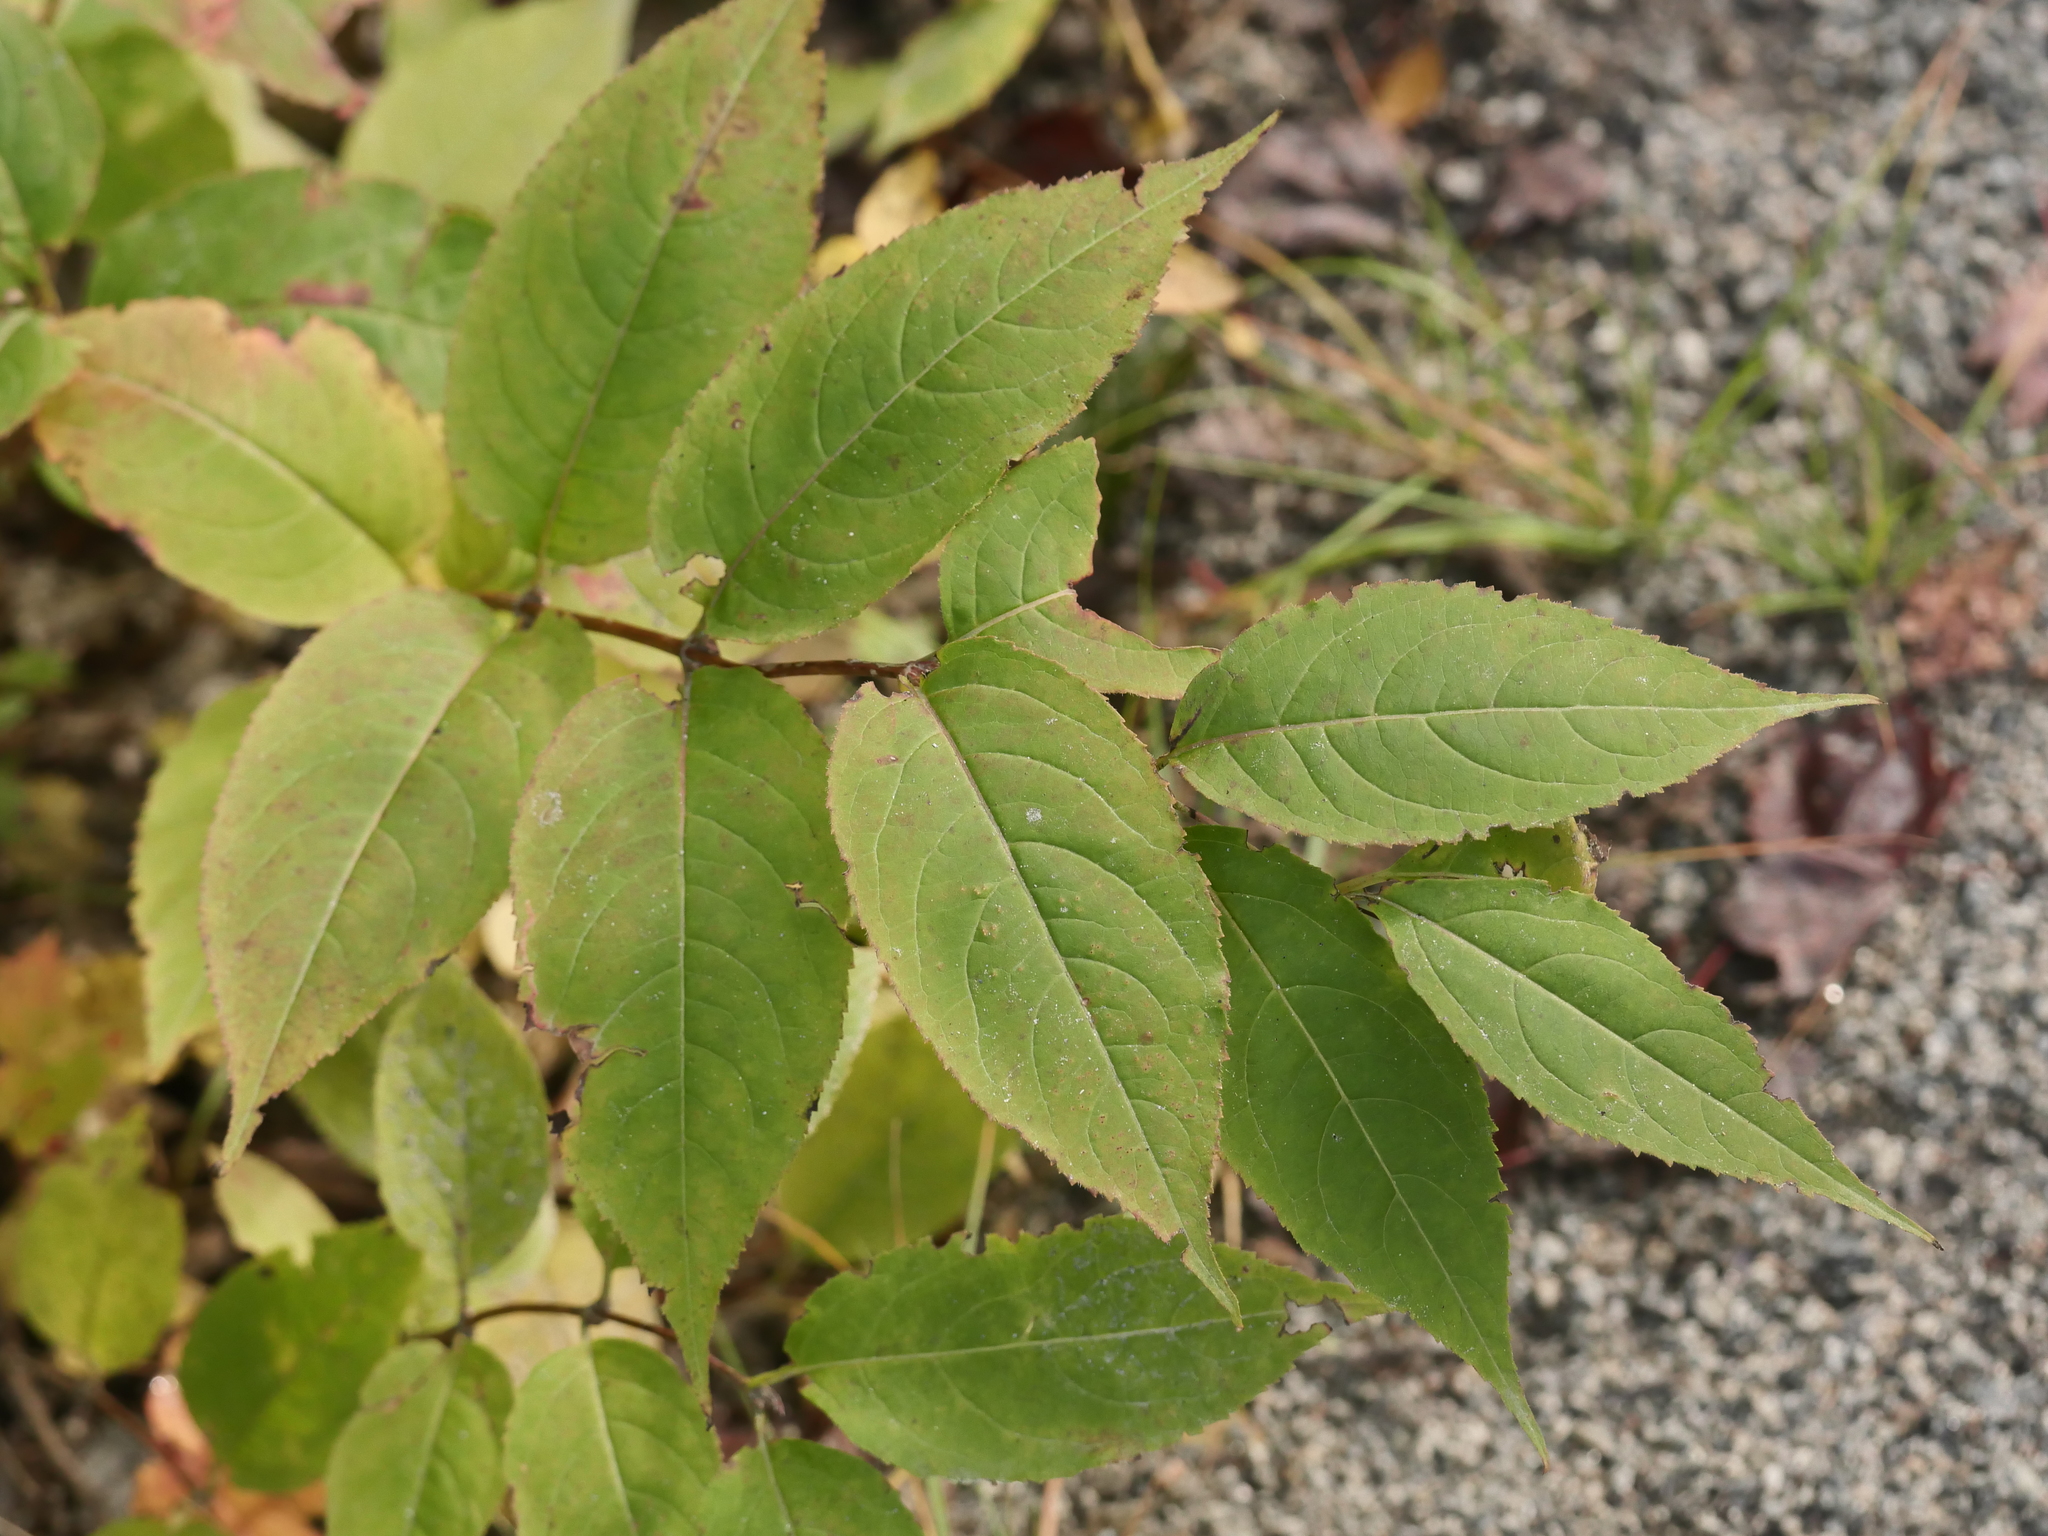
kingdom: Plantae
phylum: Tracheophyta
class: Magnoliopsida
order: Dipsacales
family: Caprifoliaceae
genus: Diervilla
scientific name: Diervilla lonicera
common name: Bush-honeysuckle
